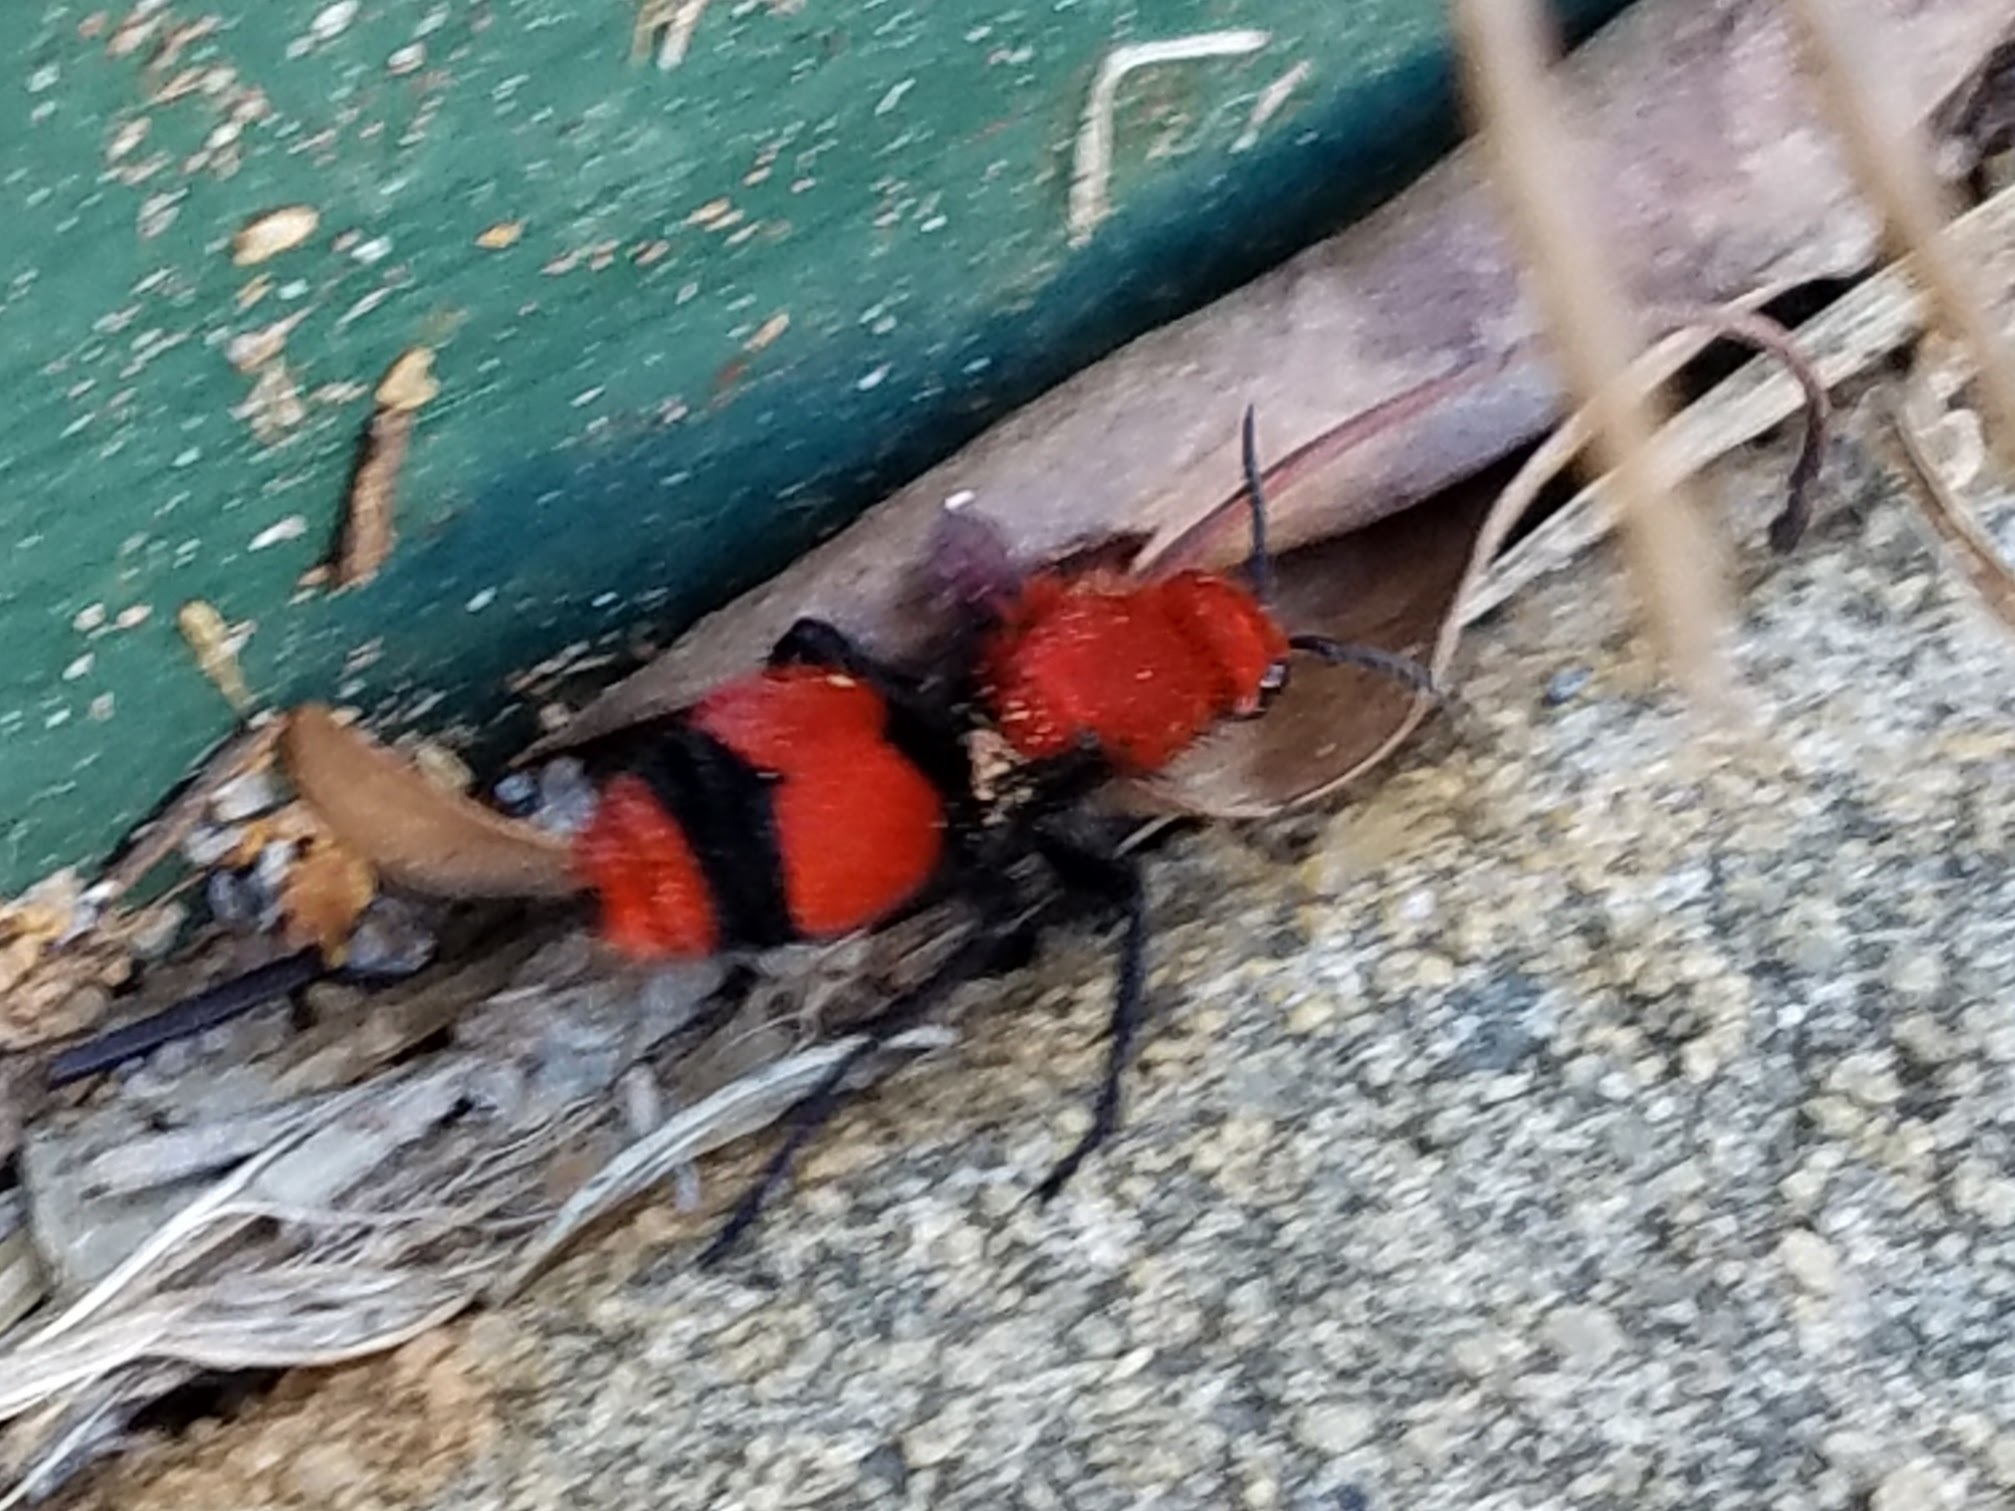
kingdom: Animalia
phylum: Arthropoda
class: Insecta
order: Hymenoptera
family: Mutillidae
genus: Dasymutilla
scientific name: Dasymutilla occidentalis
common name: Common eastern velvet ant
